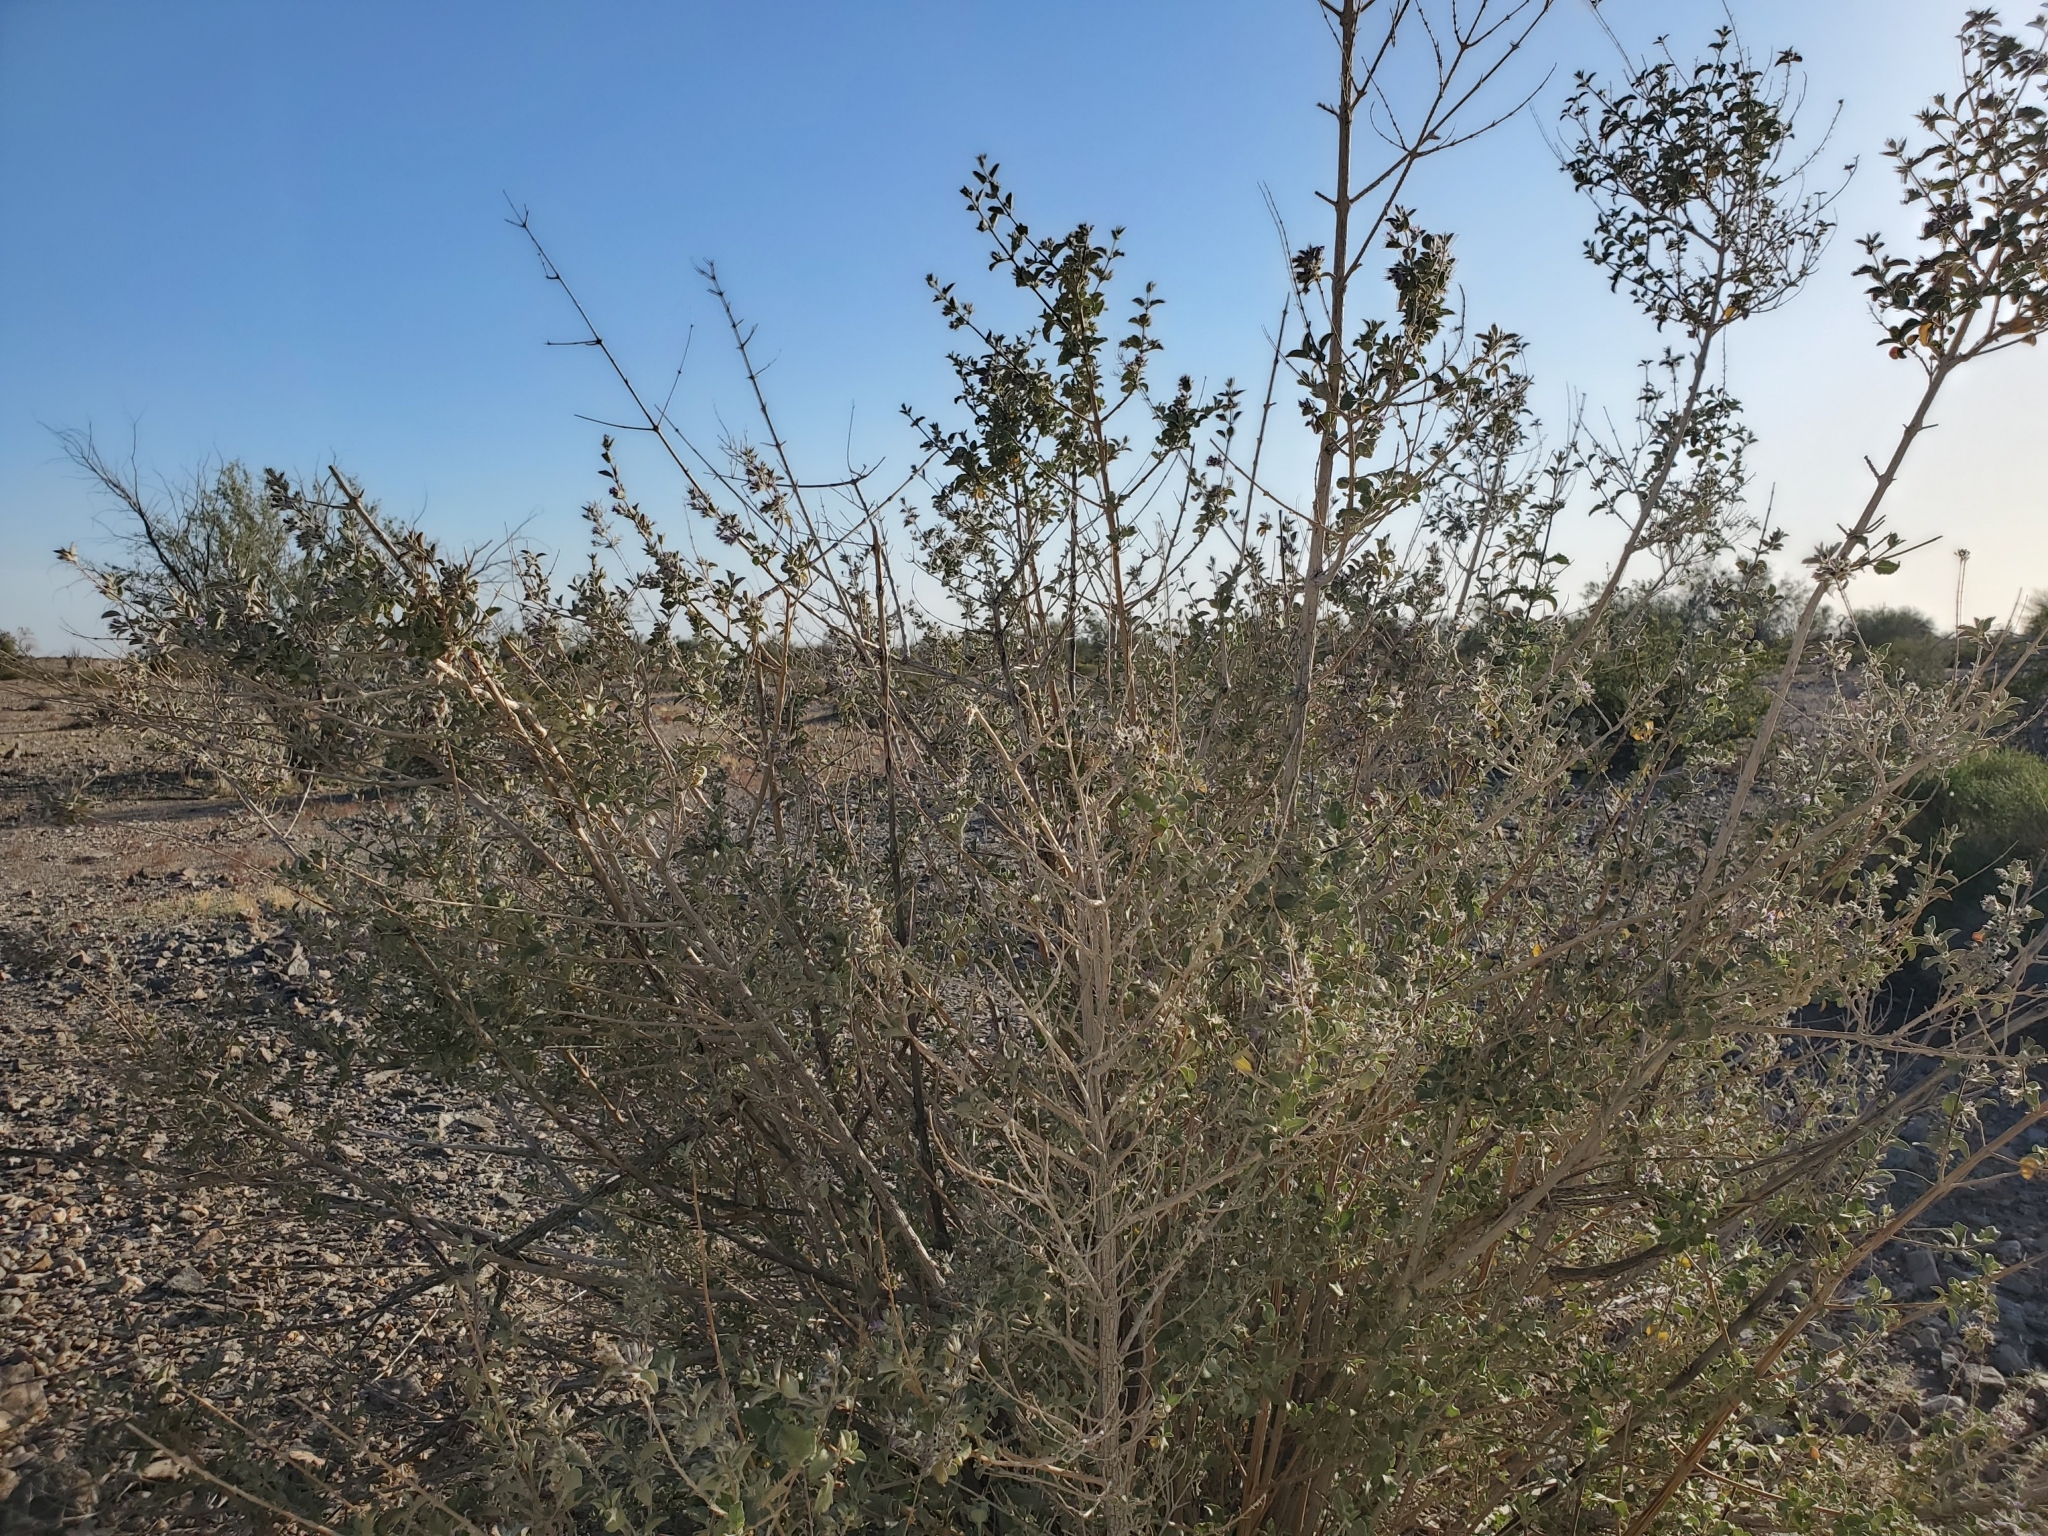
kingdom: Plantae
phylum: Tracheophyta
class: Magnoliopsida
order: Lamiales
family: Lamiaceae
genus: Condea
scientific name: Condea emoryi
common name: Chia
